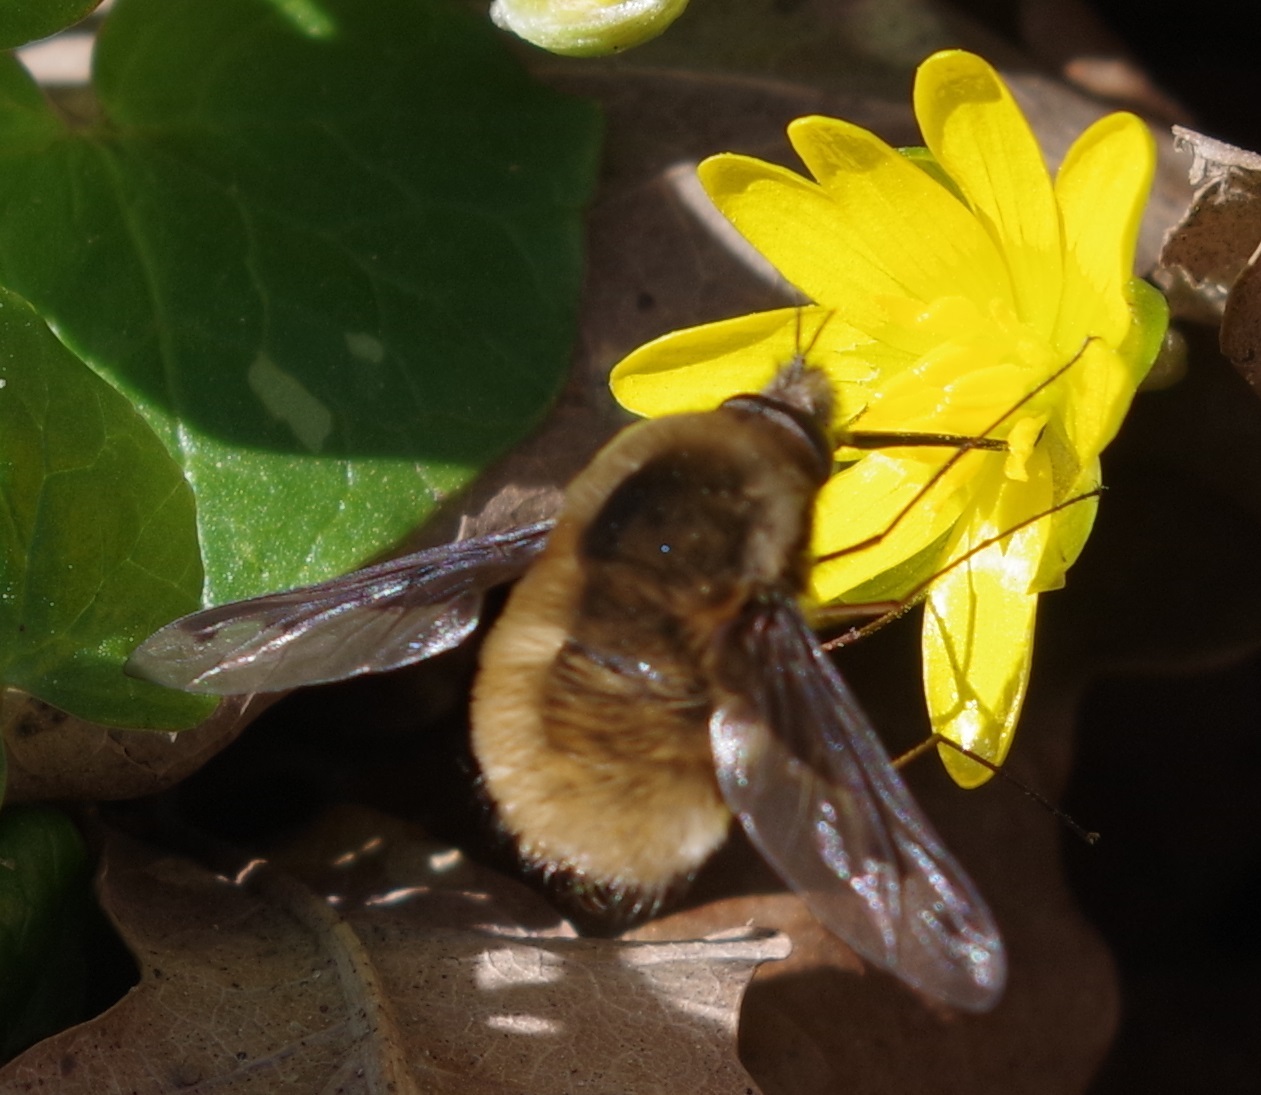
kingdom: Animalia
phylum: Arthropoda
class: Insecta
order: Diptera
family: Bombyliidae
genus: Bombylius
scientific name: Bombylius major
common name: Bee fly
